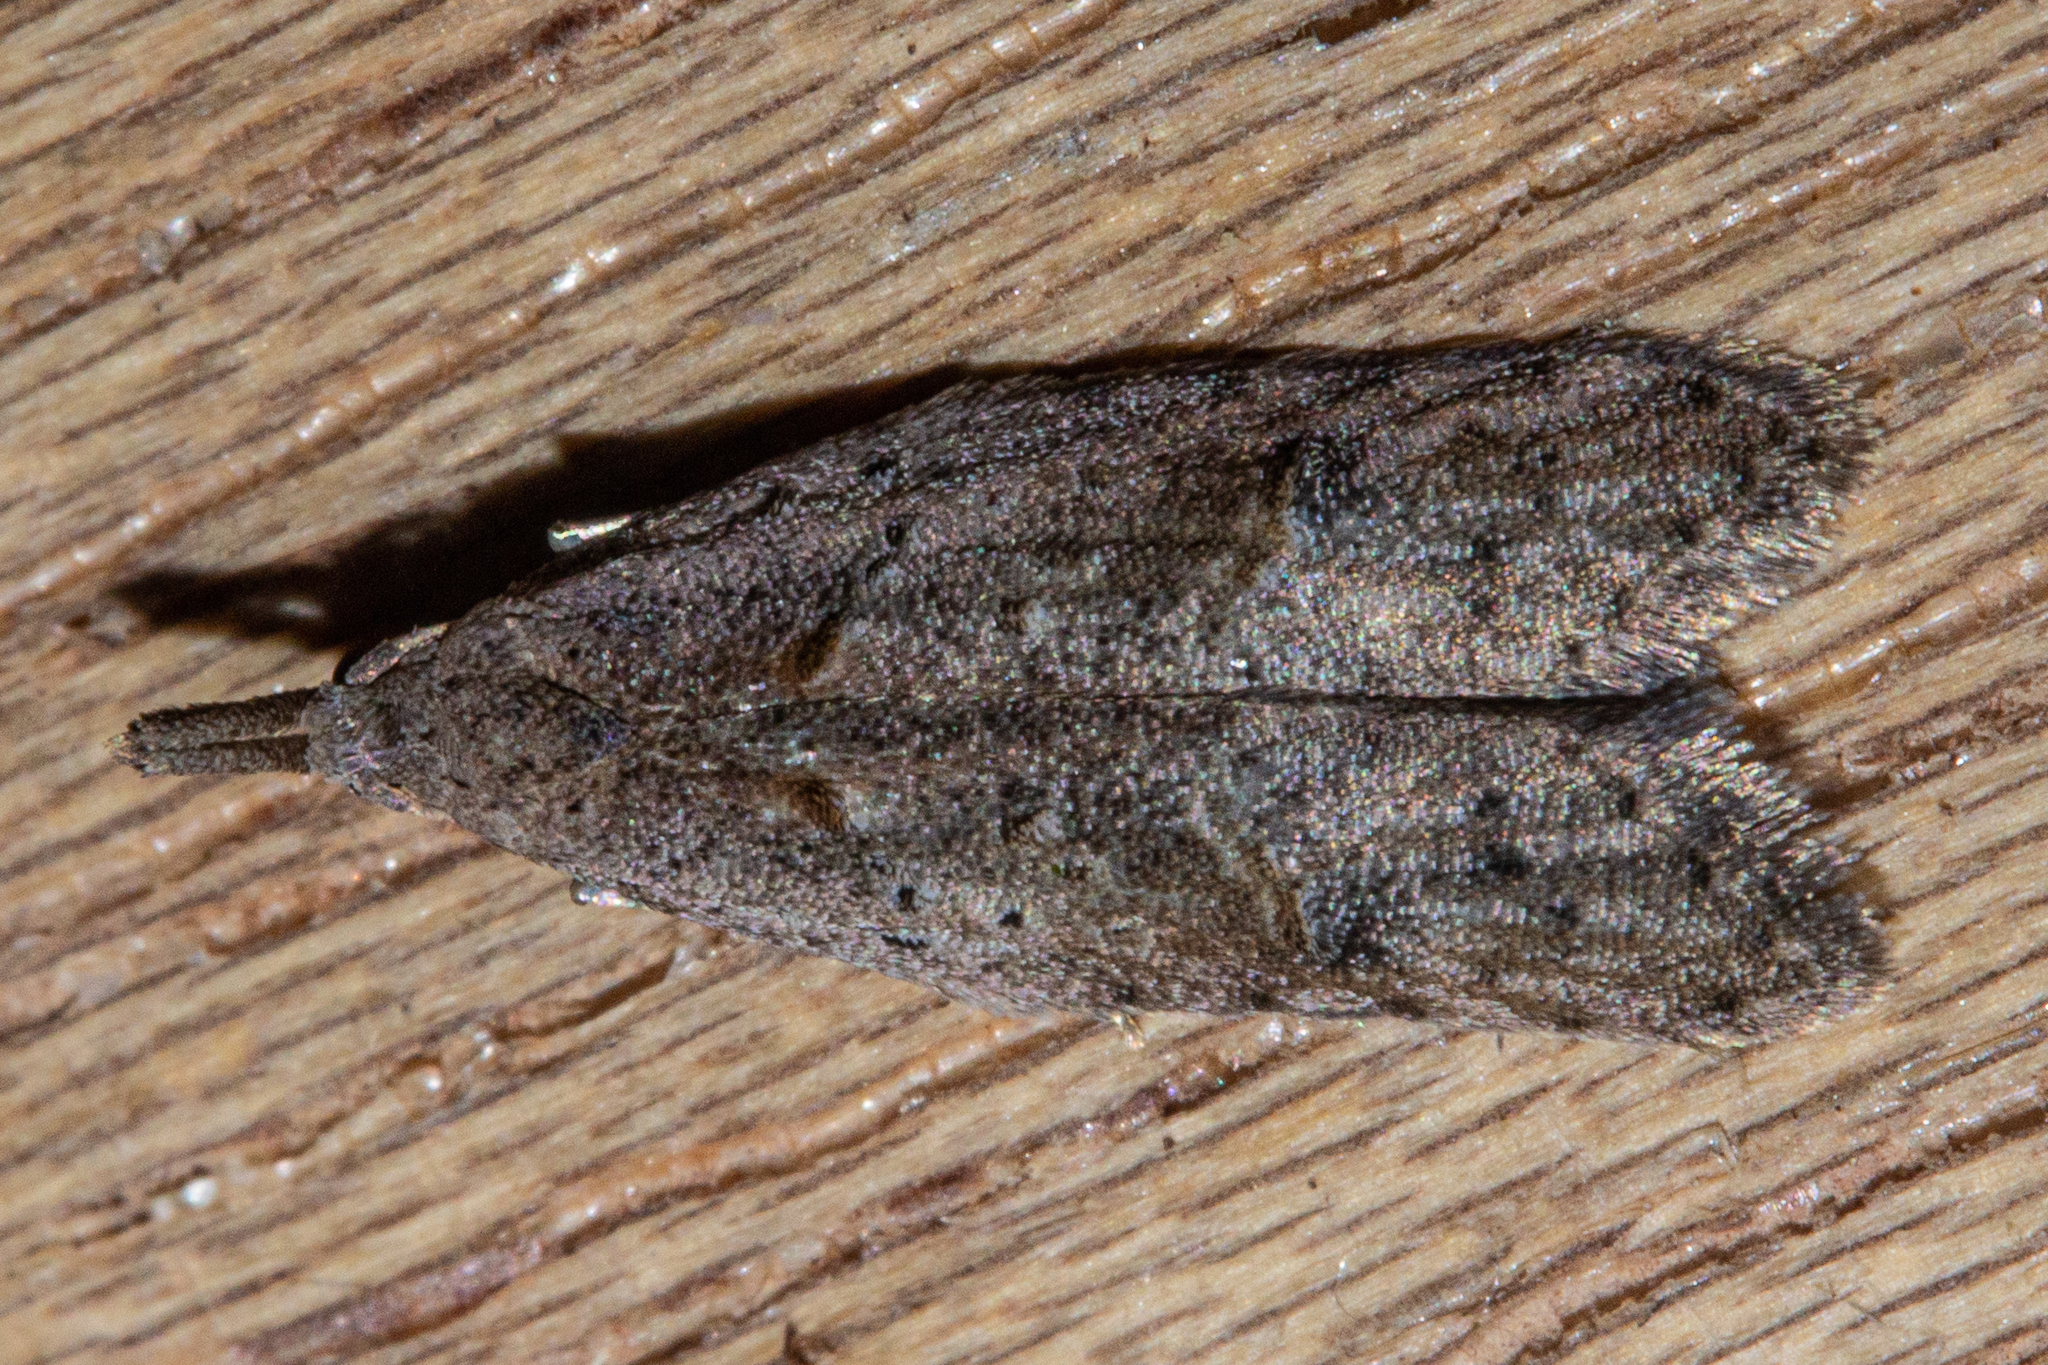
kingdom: Animalia
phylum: Arthropoda
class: Insecta
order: Lepidoptera
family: Carposinidae
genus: Carposina
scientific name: Carposina rubophaga
